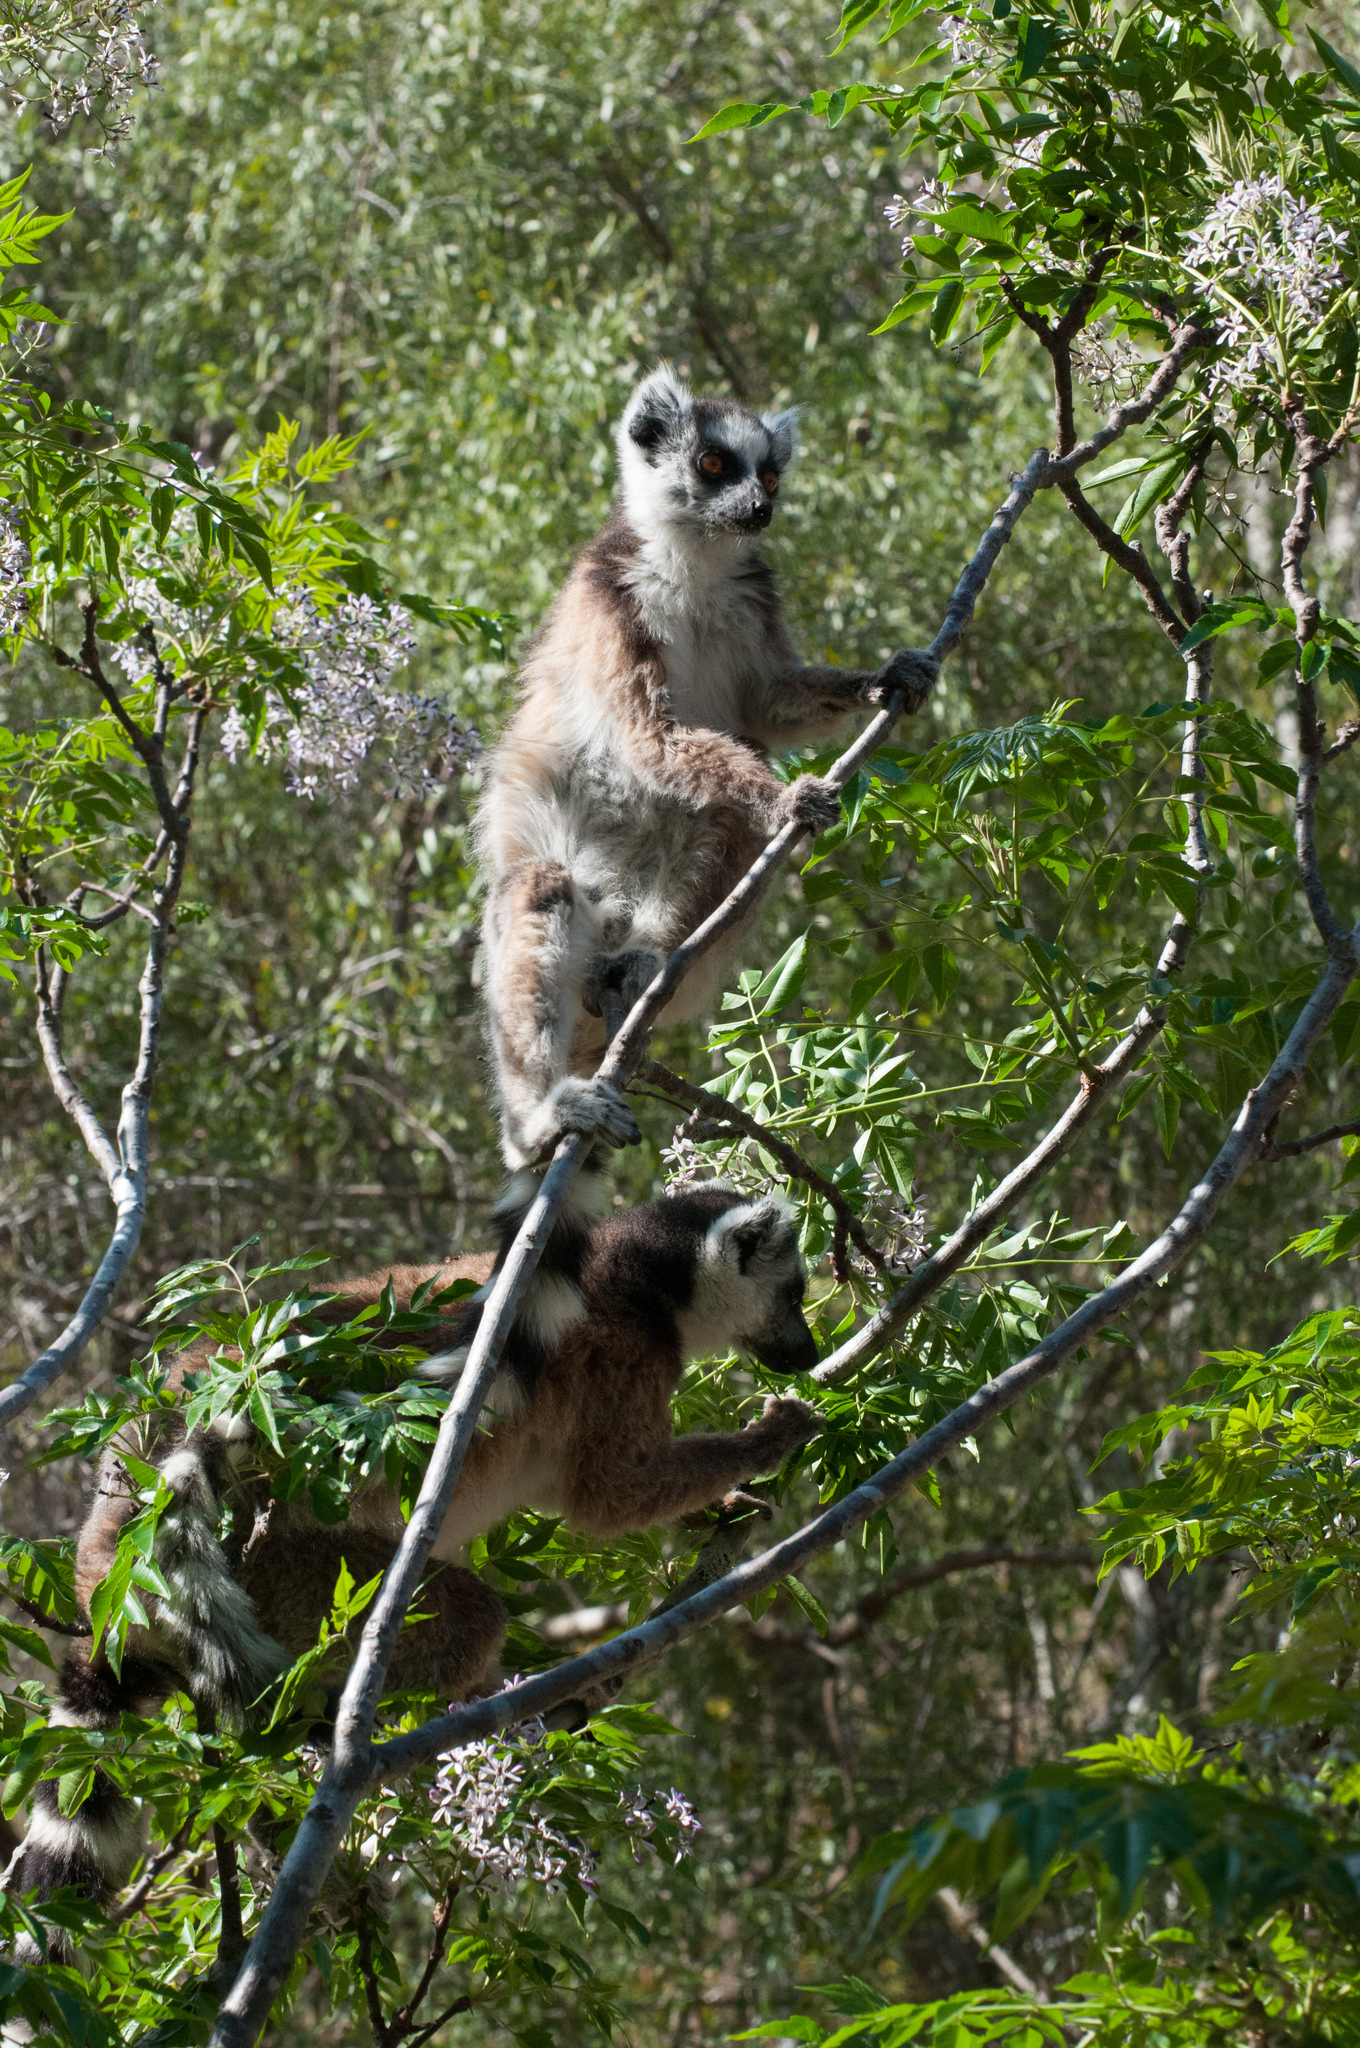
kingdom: Animalia
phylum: Chordata
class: Mammalia
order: Primates
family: Lemuridae
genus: Lemur
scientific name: Lemur catta
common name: Ring-tailed lemur
